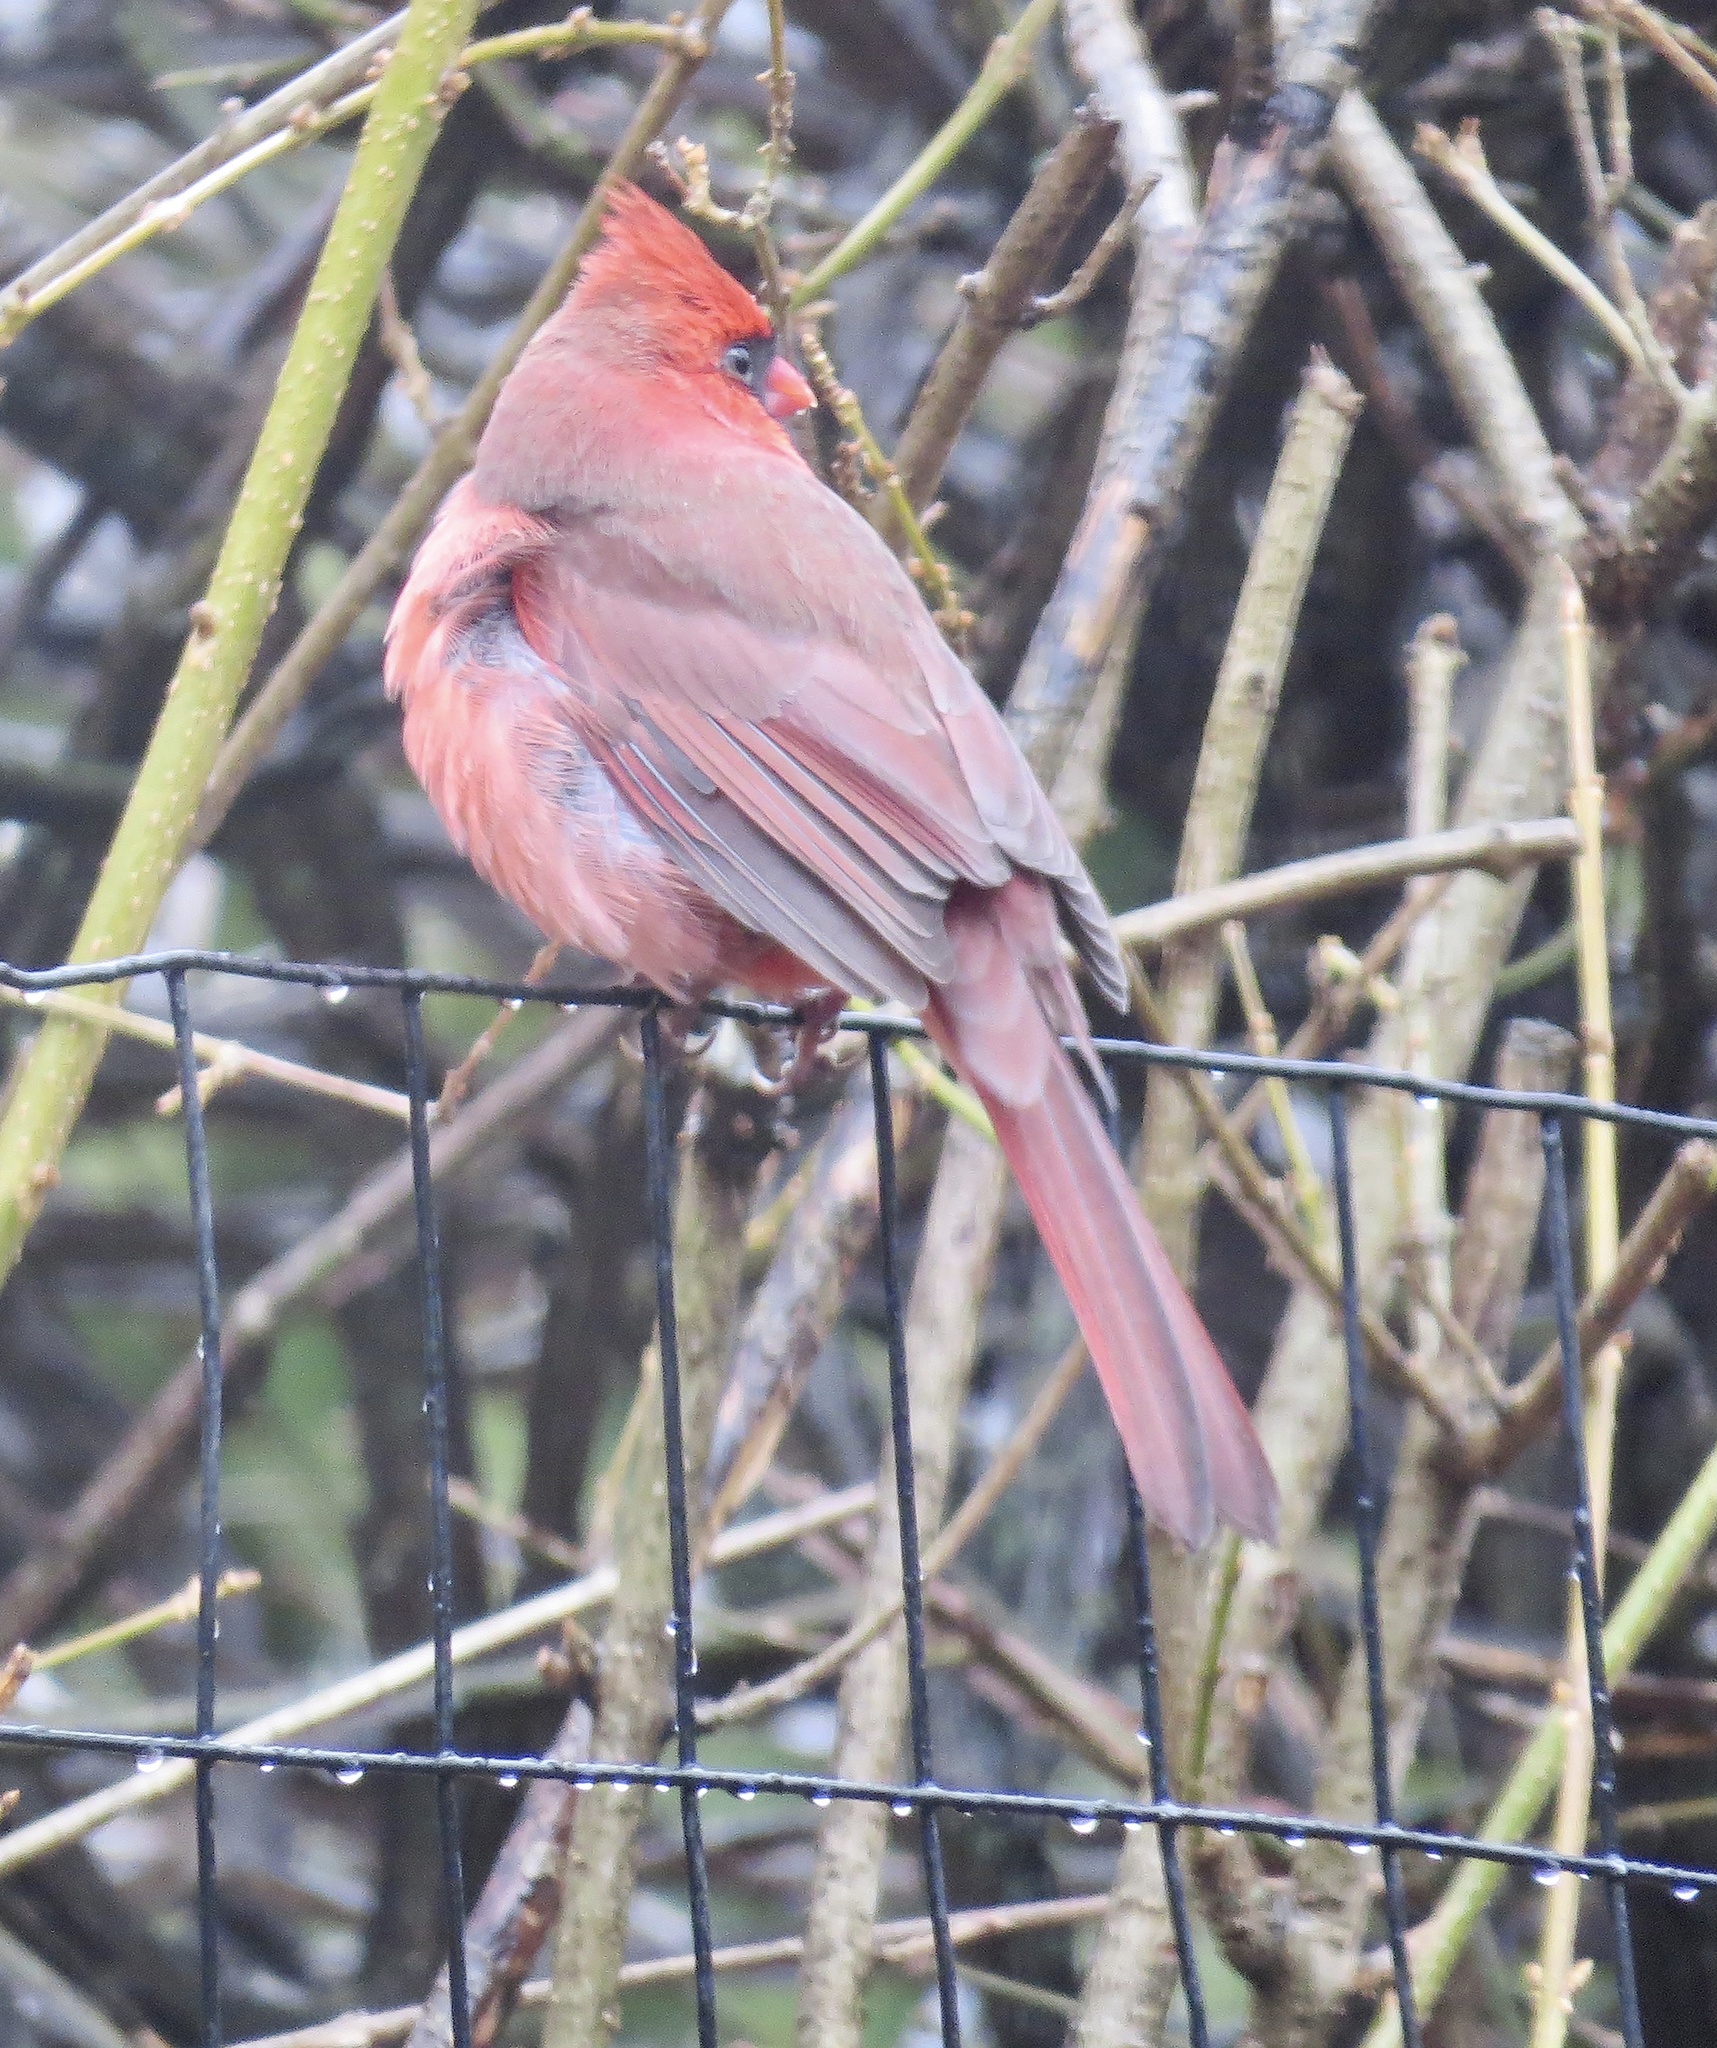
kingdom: Animalia
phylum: Chordata
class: Aves
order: Passeriformes
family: Cardinalidae
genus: Cardinalis
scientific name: Cardinalis cardinalis
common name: Northern cardinal
